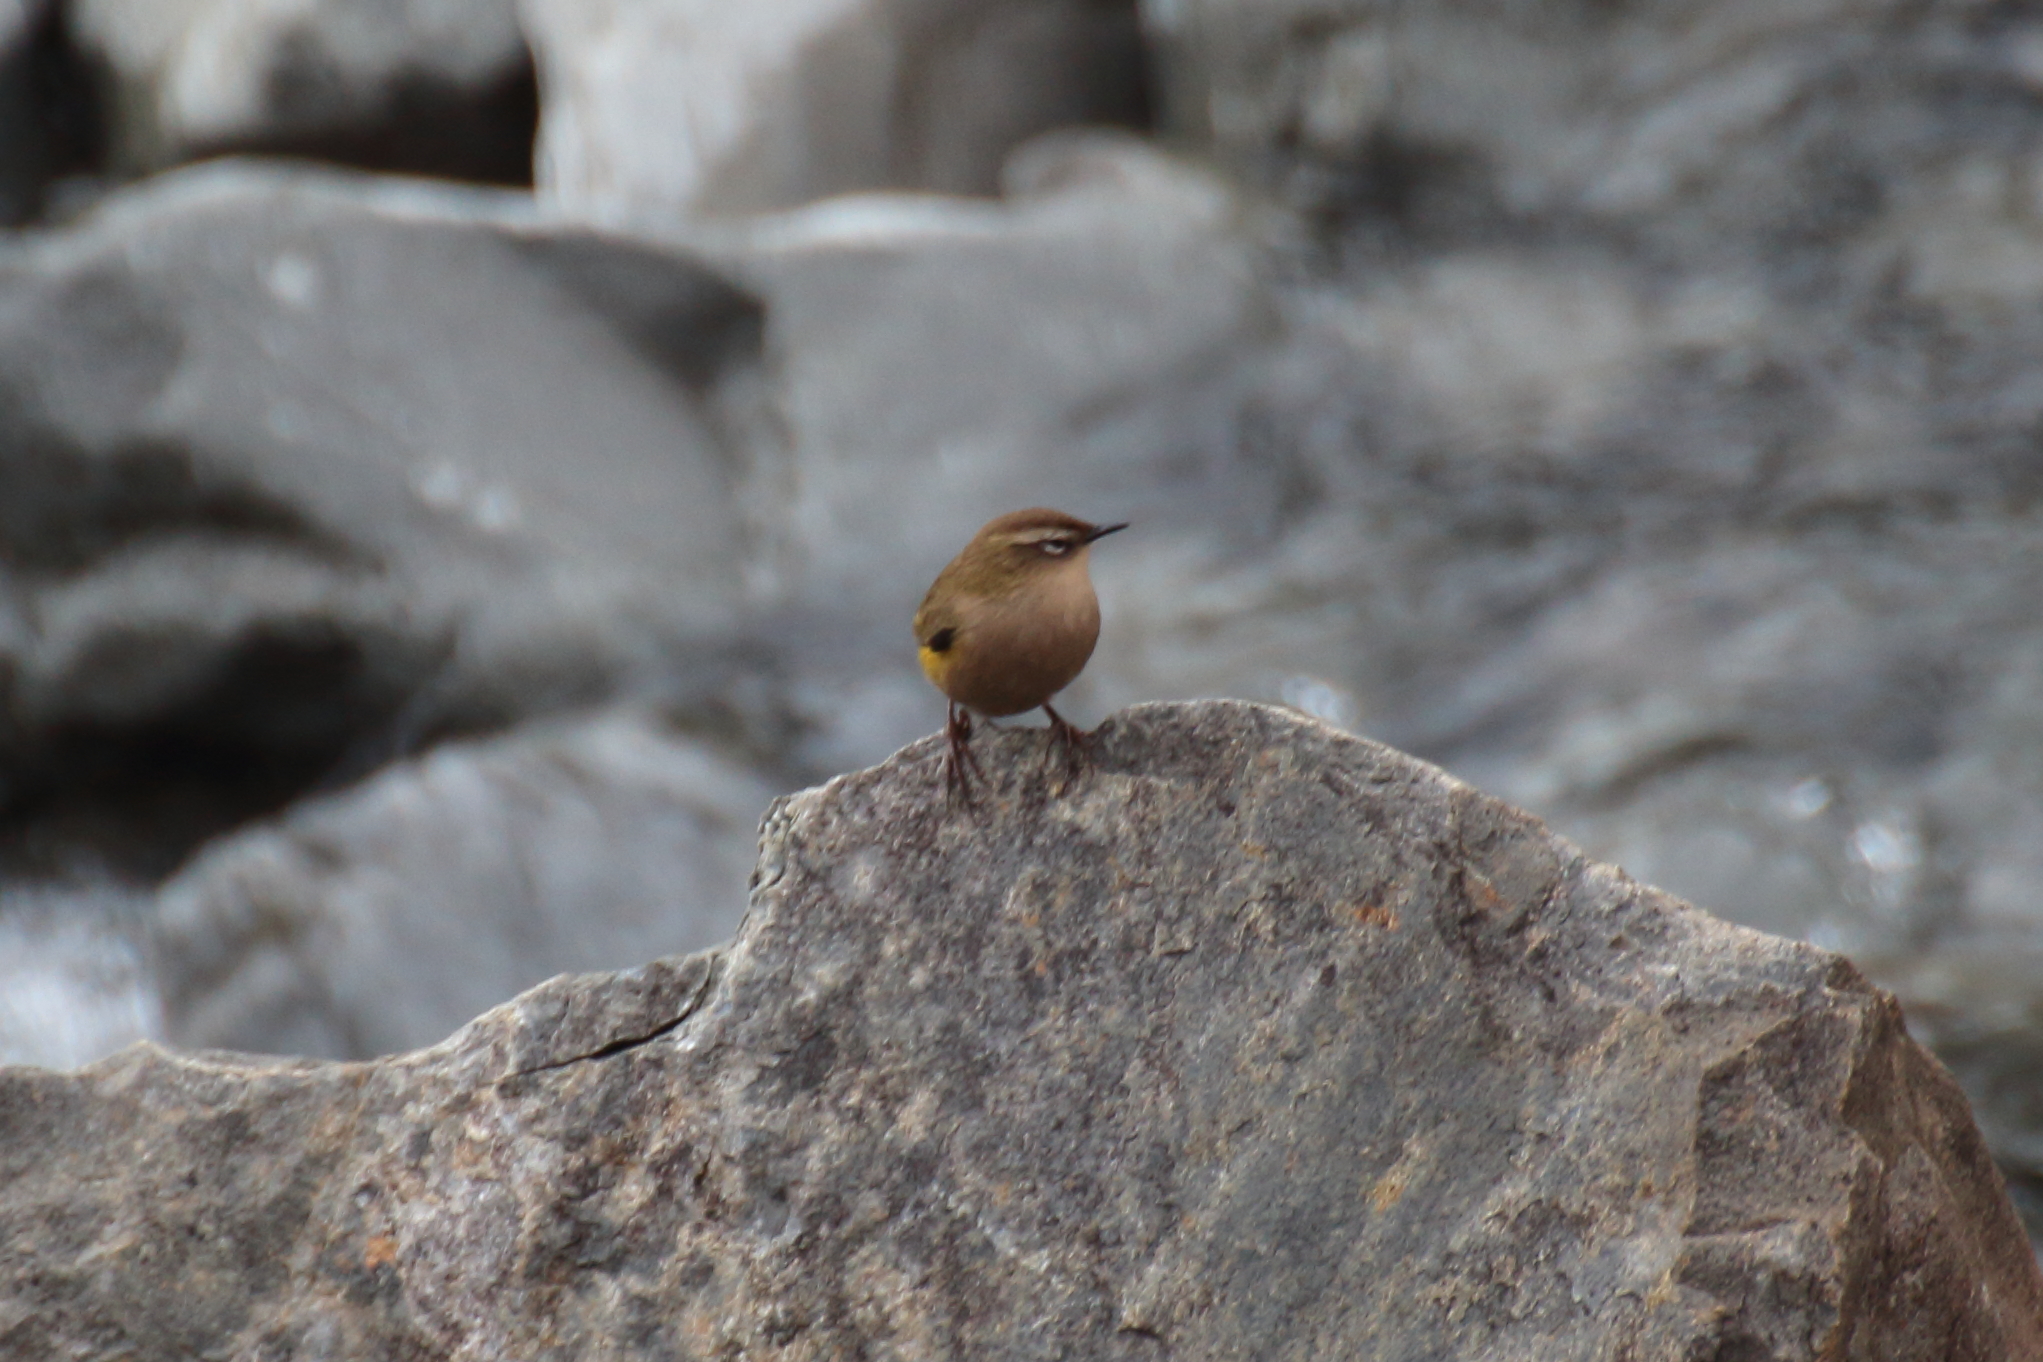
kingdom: Animalia
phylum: Chordata
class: Aves
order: Passeriformes
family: Acanthisittidae
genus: Xenicus
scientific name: Xenicus gilviventris
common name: New zealand rockwren
